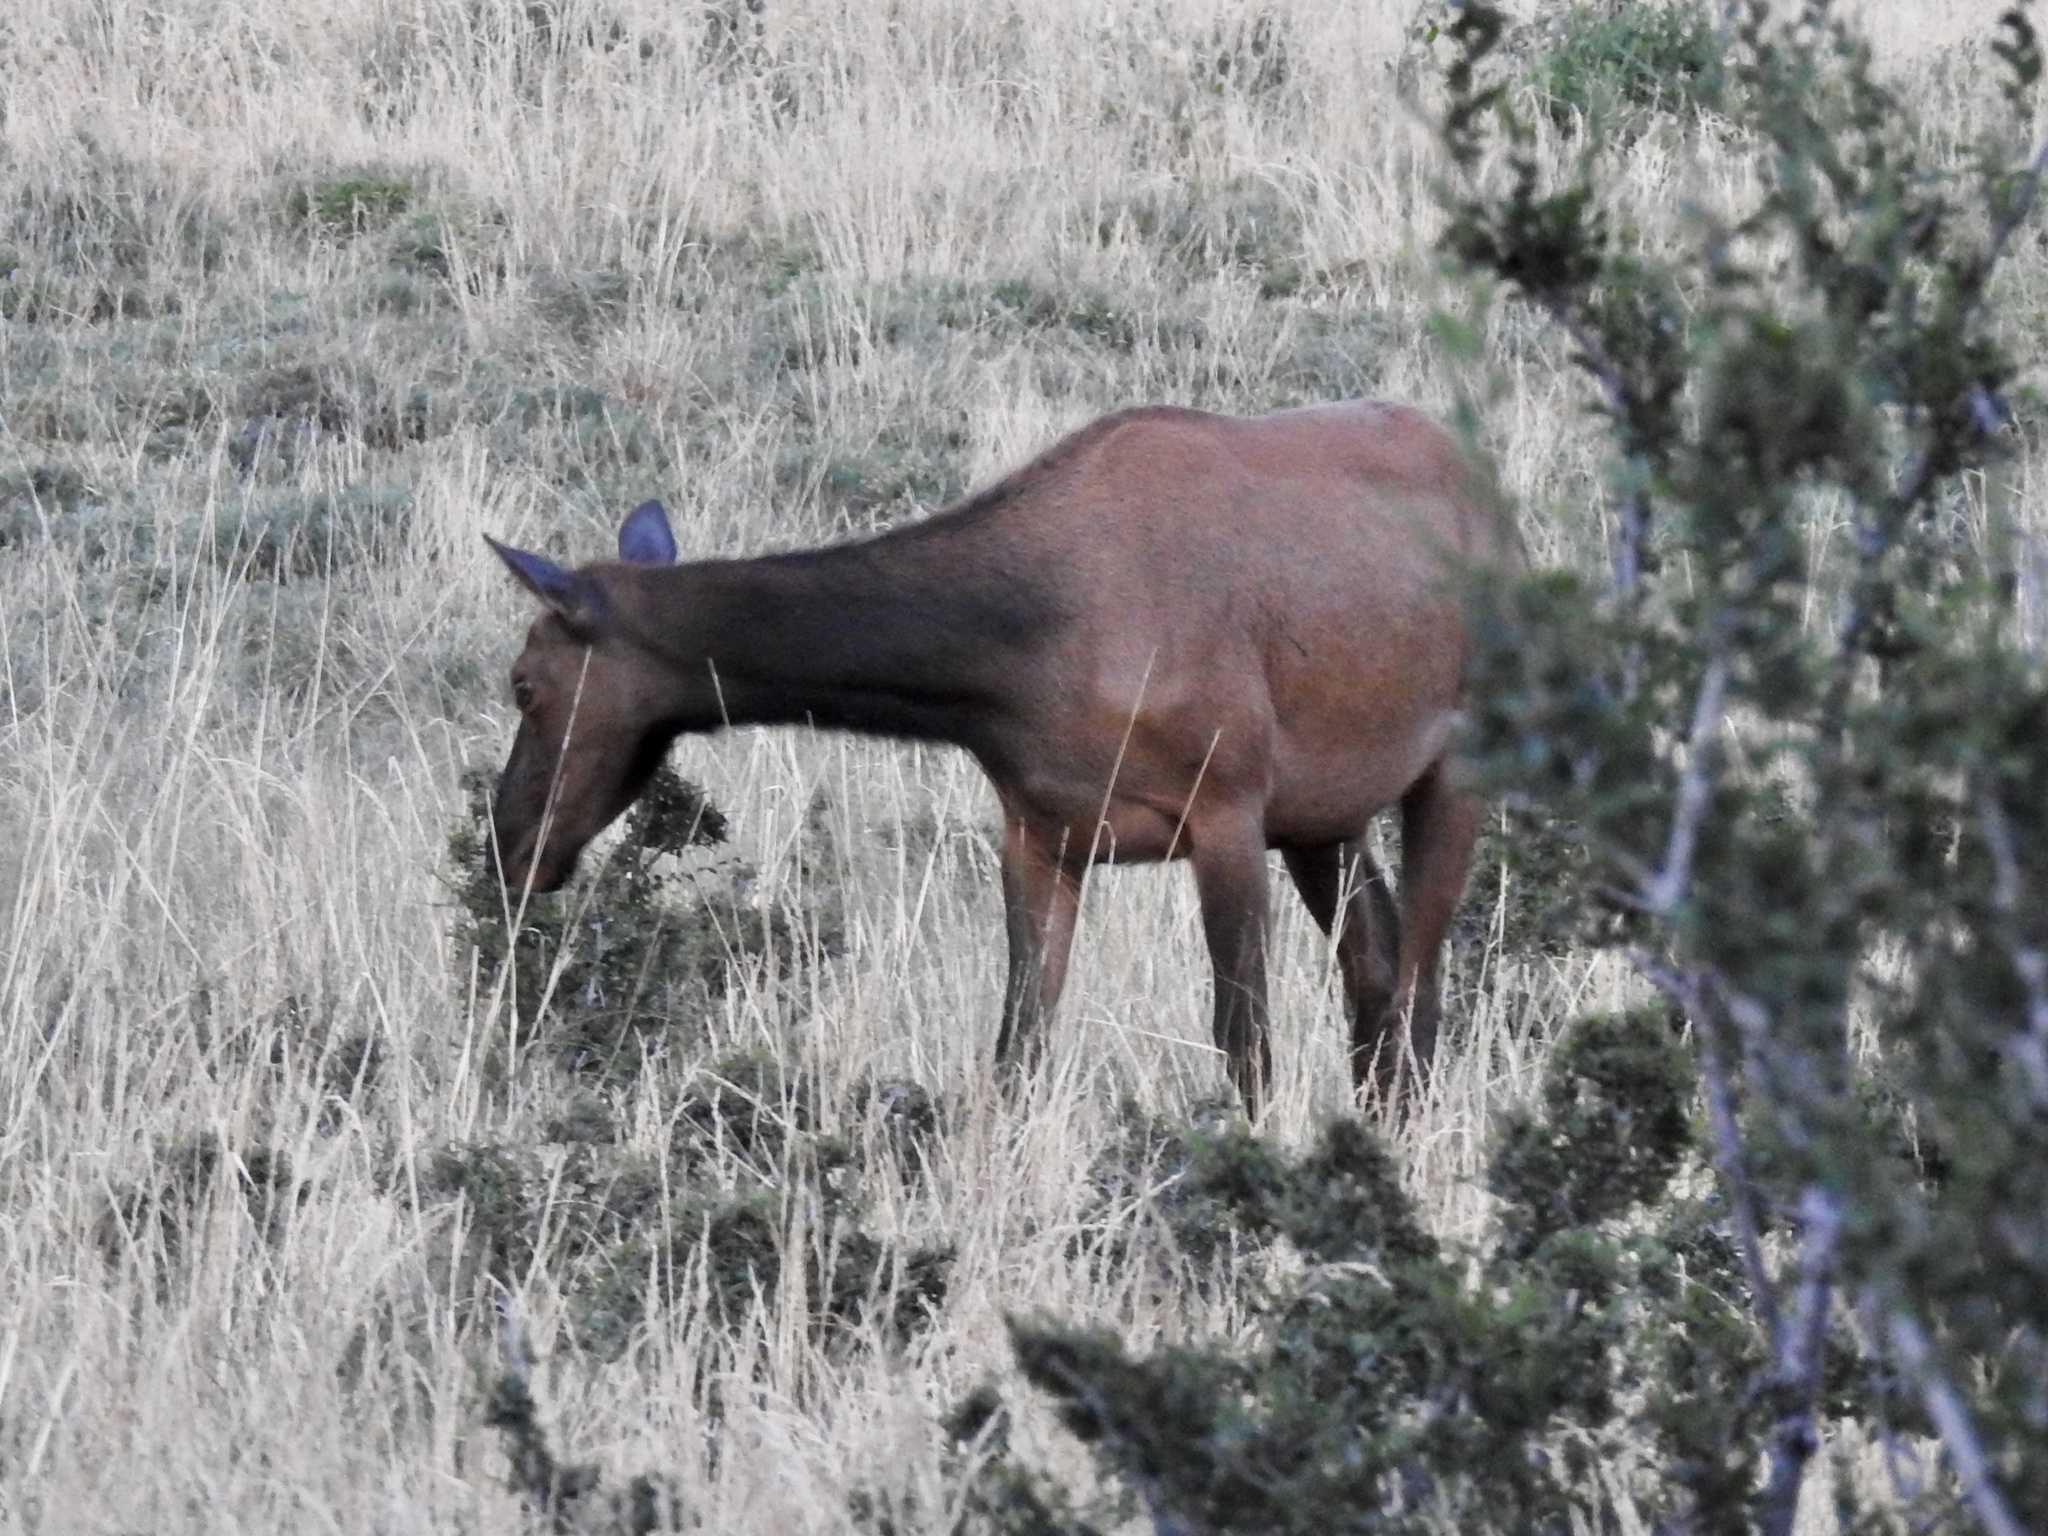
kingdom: Animalia
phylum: Chordata
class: Mammalia
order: Artiodactyla
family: Cervidae
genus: Cervus
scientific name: Cervus elaphus
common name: Red deer
